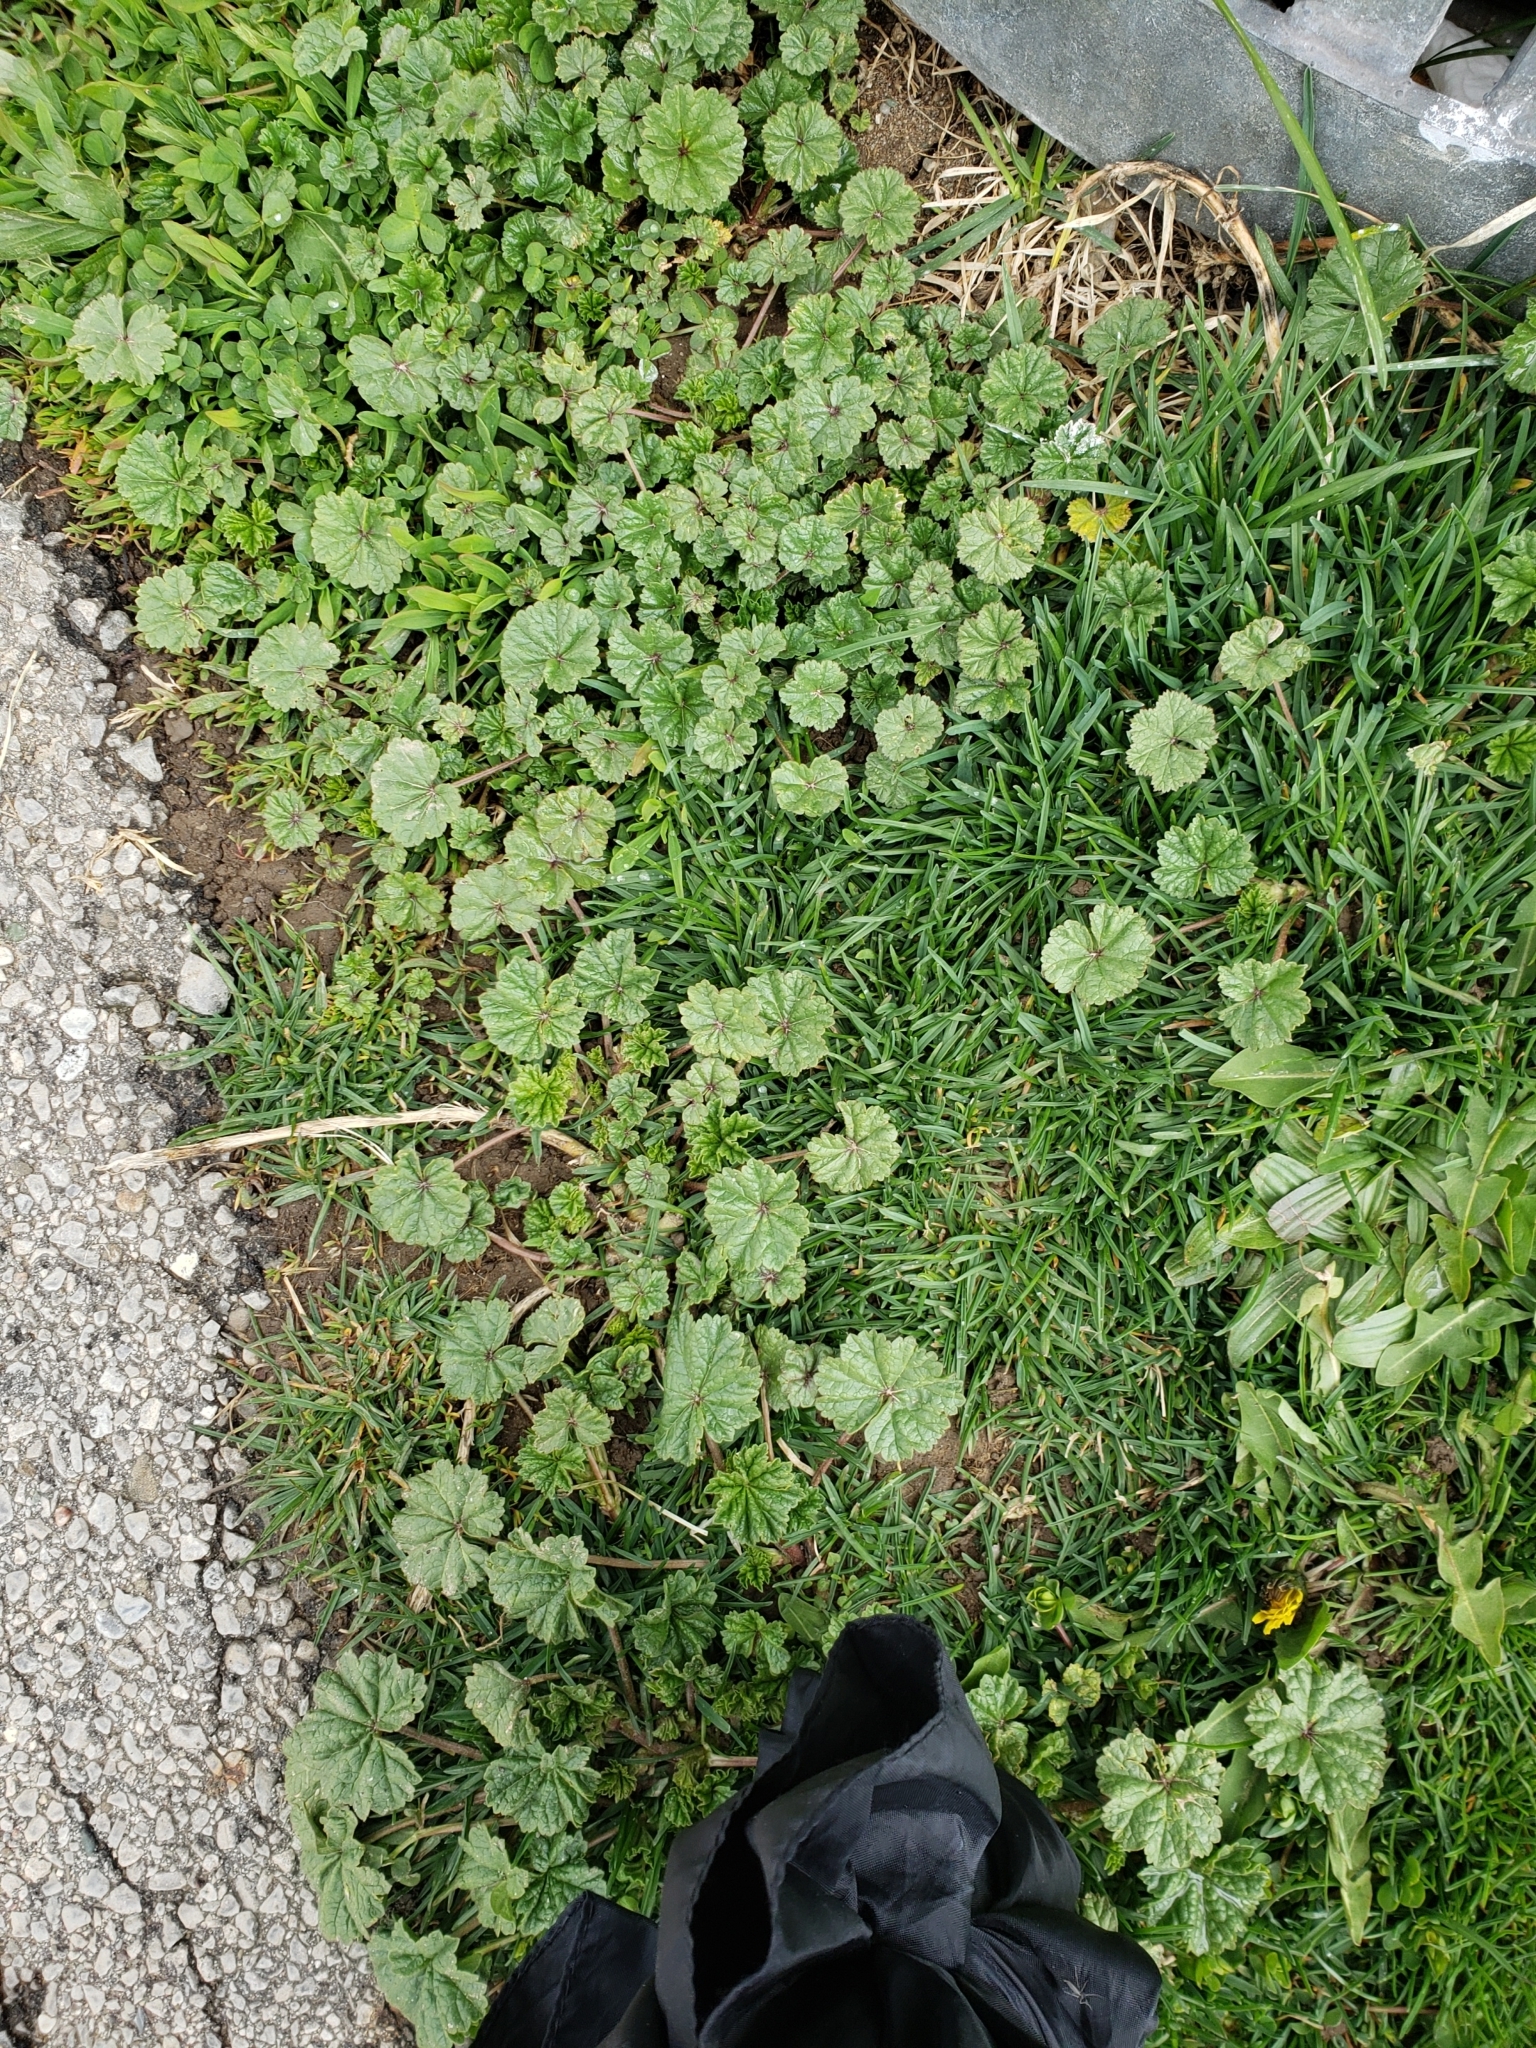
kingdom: Plantae
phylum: Tracheophyta
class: Magnoliopsida
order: Lamiales
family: Lamiaceae
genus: Glechoma
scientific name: Glechoma hederacea
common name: Ground ivy
